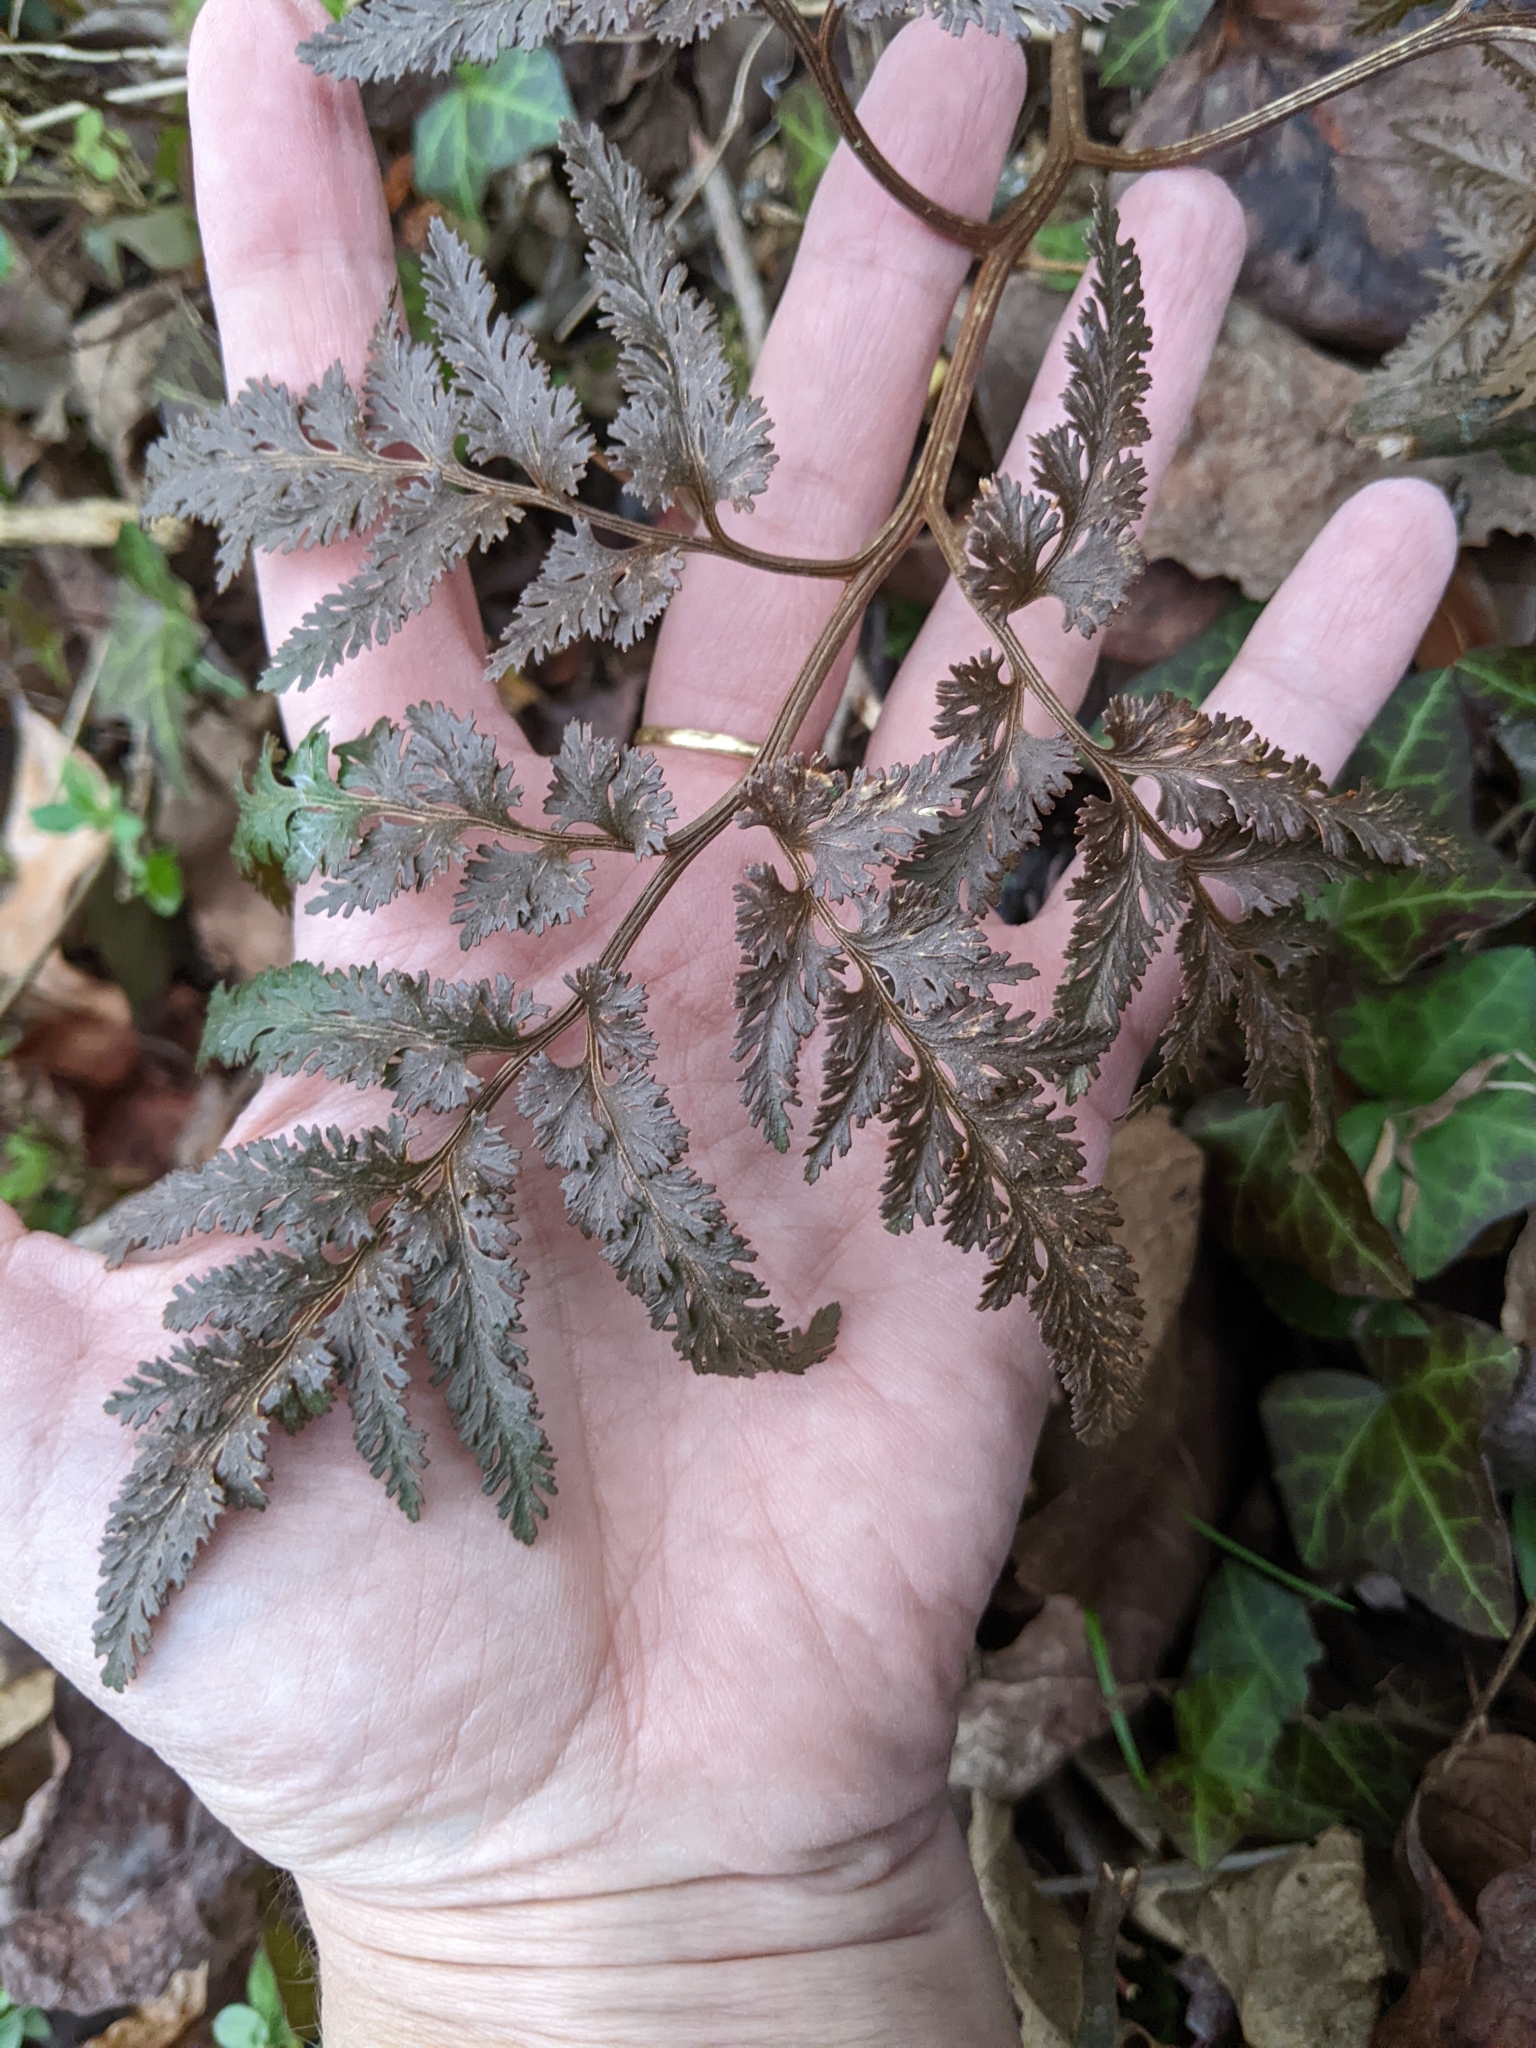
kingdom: Plantae
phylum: Tracheophyta
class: Polypodiopsida
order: Ophioglossales
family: Ophioglossaceae
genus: Sceptridium
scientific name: Sceptridium dissectum
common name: Cut-leaved grapefern
